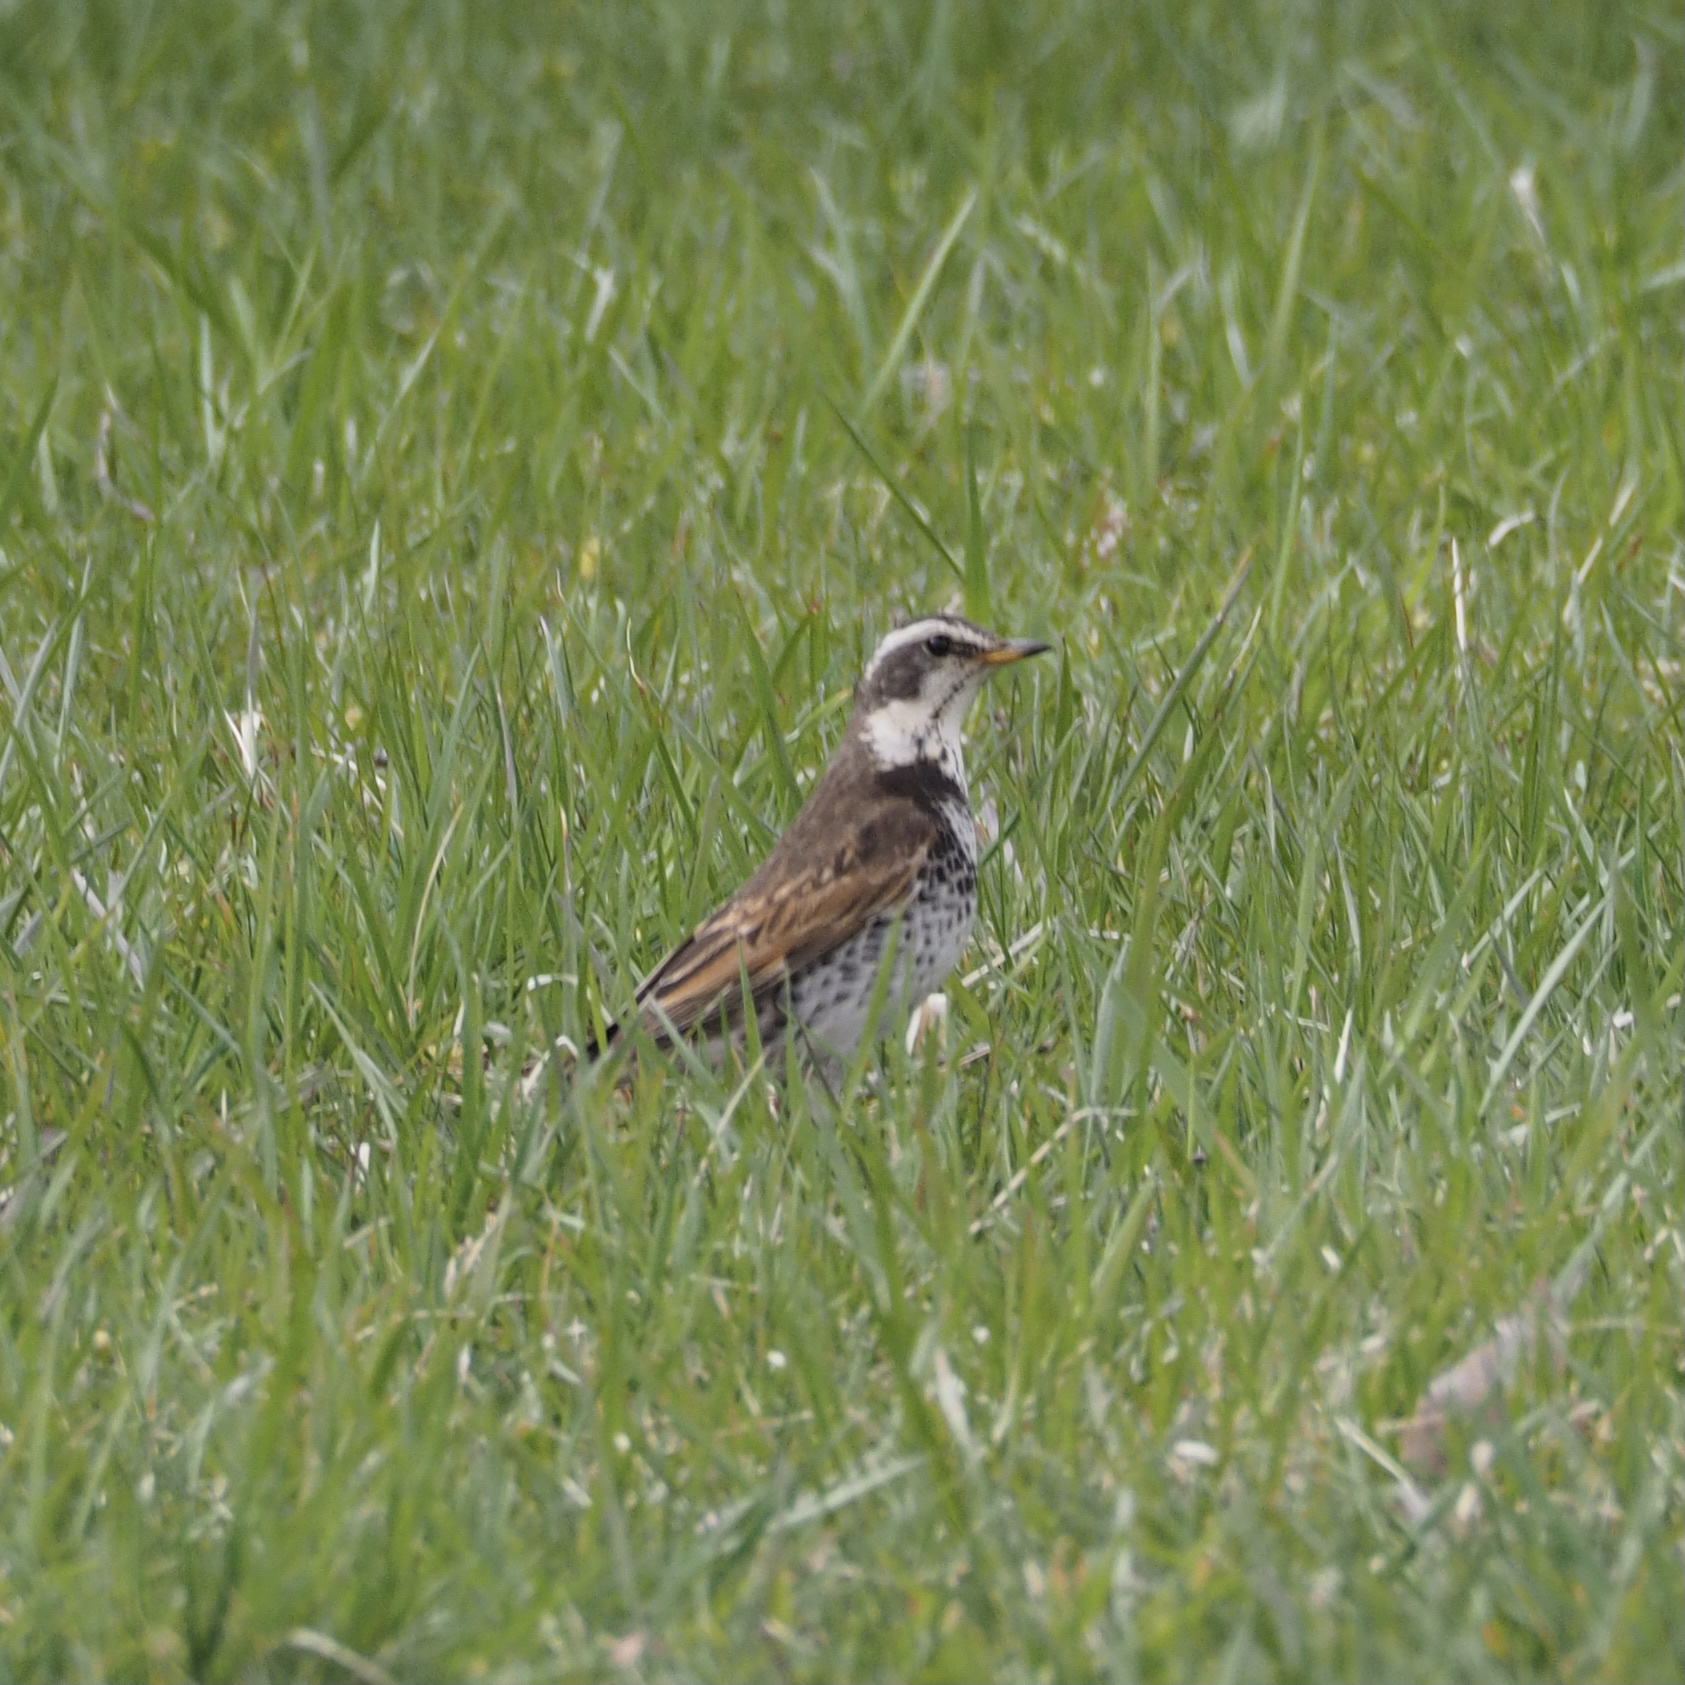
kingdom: Animalia
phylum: Chordata
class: Aves
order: Passeriformes
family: Turdidae
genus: Turdus
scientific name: Turdus eunomus
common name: Dusky thrush
